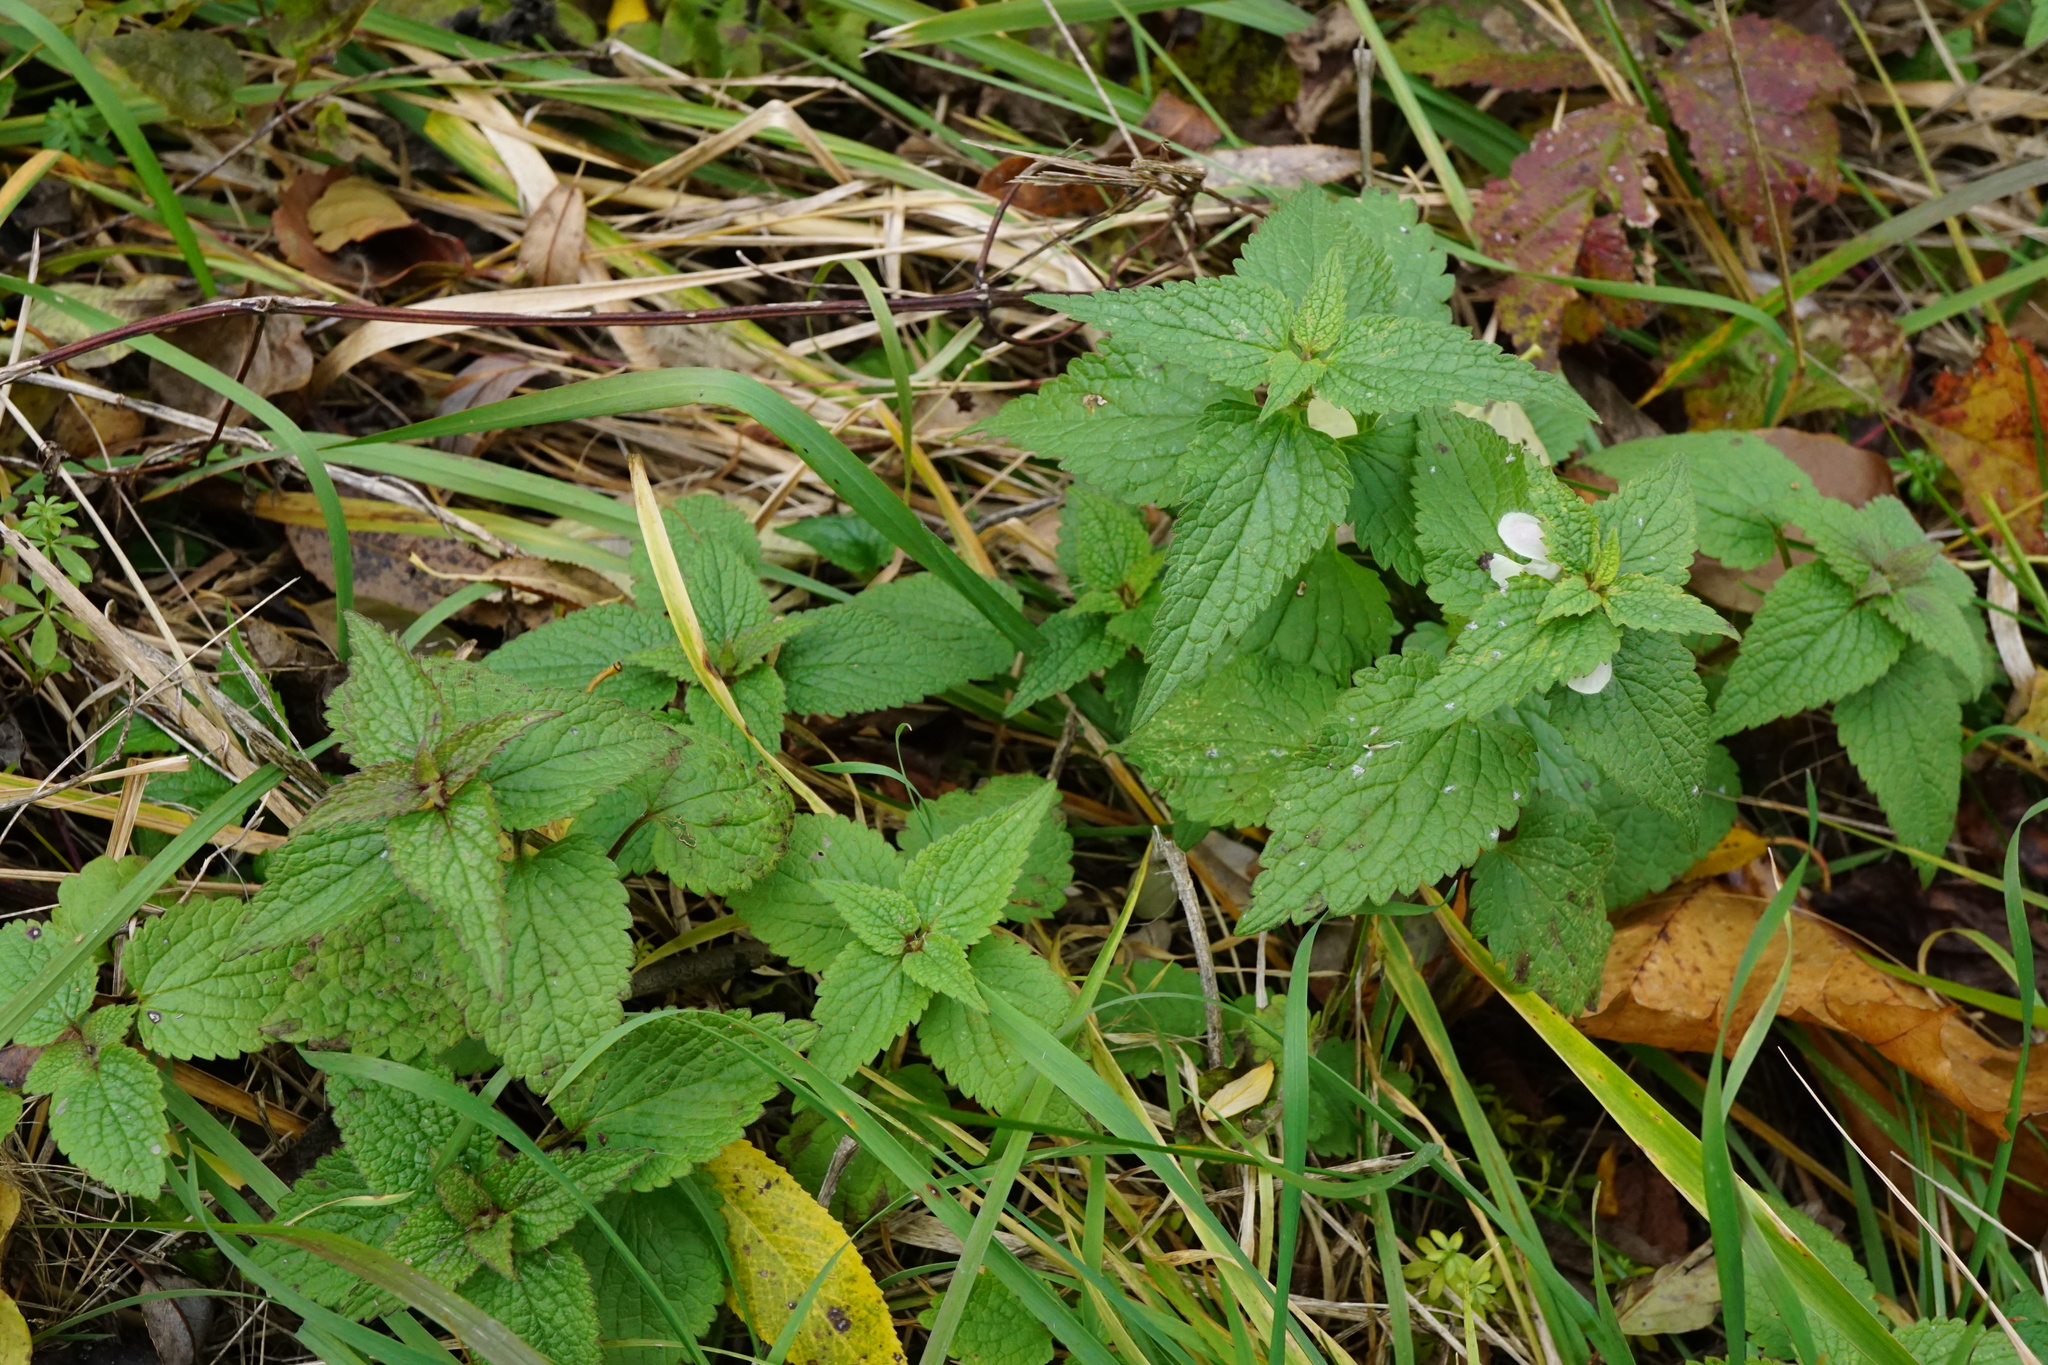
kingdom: Plantae
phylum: Tracheophyta
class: Magnoliopsida
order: Lamiales
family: Lamiaceae
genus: Lamium
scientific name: Lamium album
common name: White dead-nettle
